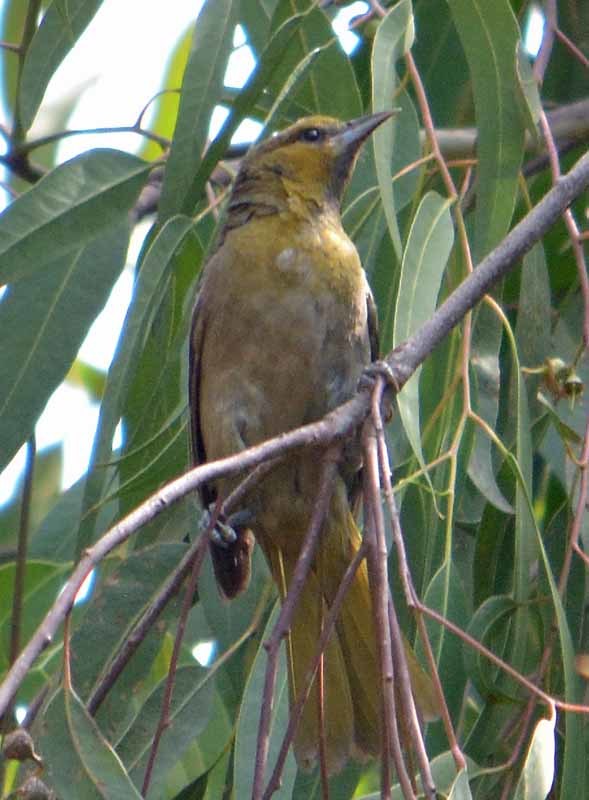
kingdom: Animalia
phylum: Chordata
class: Aves
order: Passeriformes
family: Icteridae
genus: Icterus
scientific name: Icterus galbula
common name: Baltimore oriole
